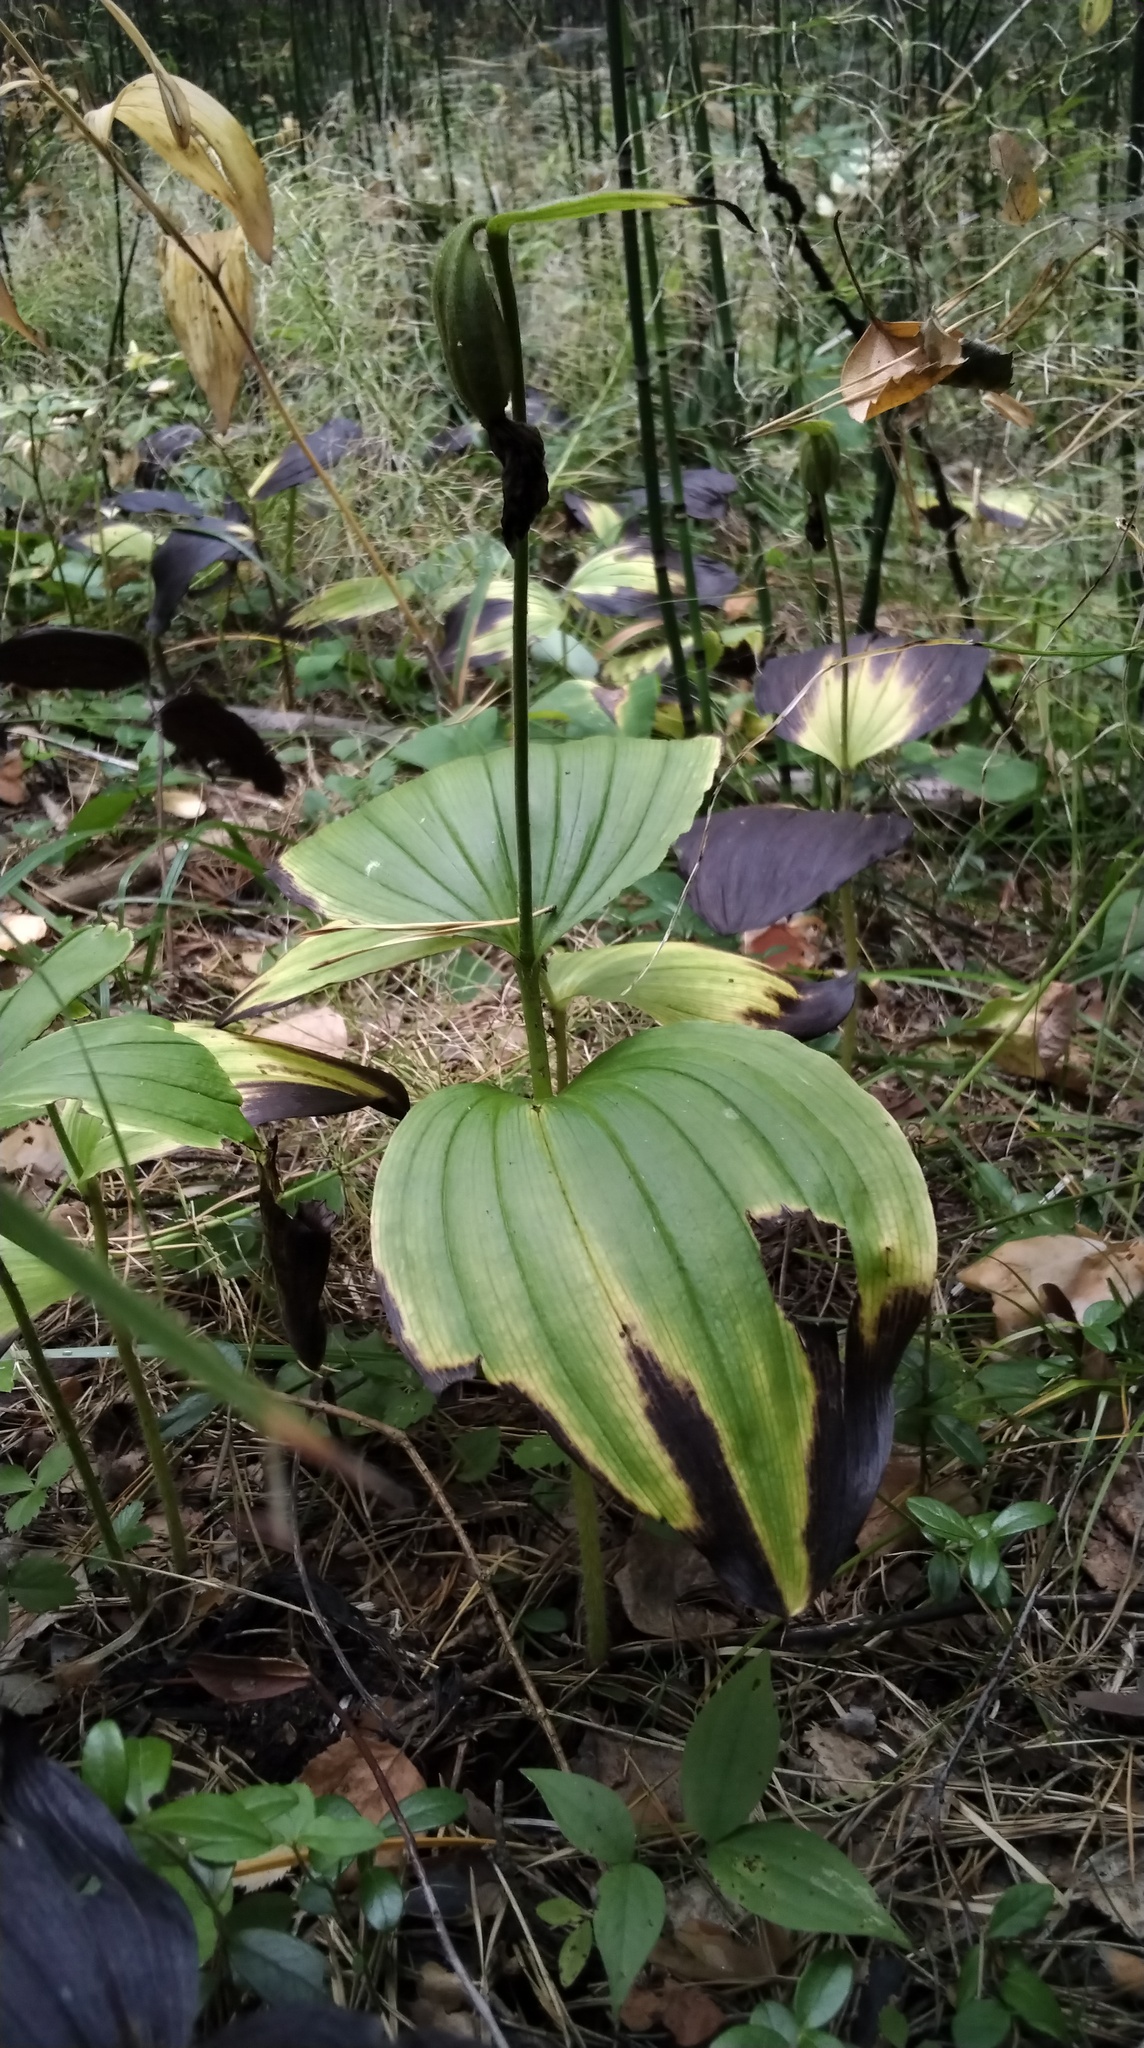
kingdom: Plantae
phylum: Tracheophyta
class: Liliopsida
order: Asparagales
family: Orchidaceae
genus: Cypripedium
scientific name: Cypripedium guttatum
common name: Pink lady slipper
